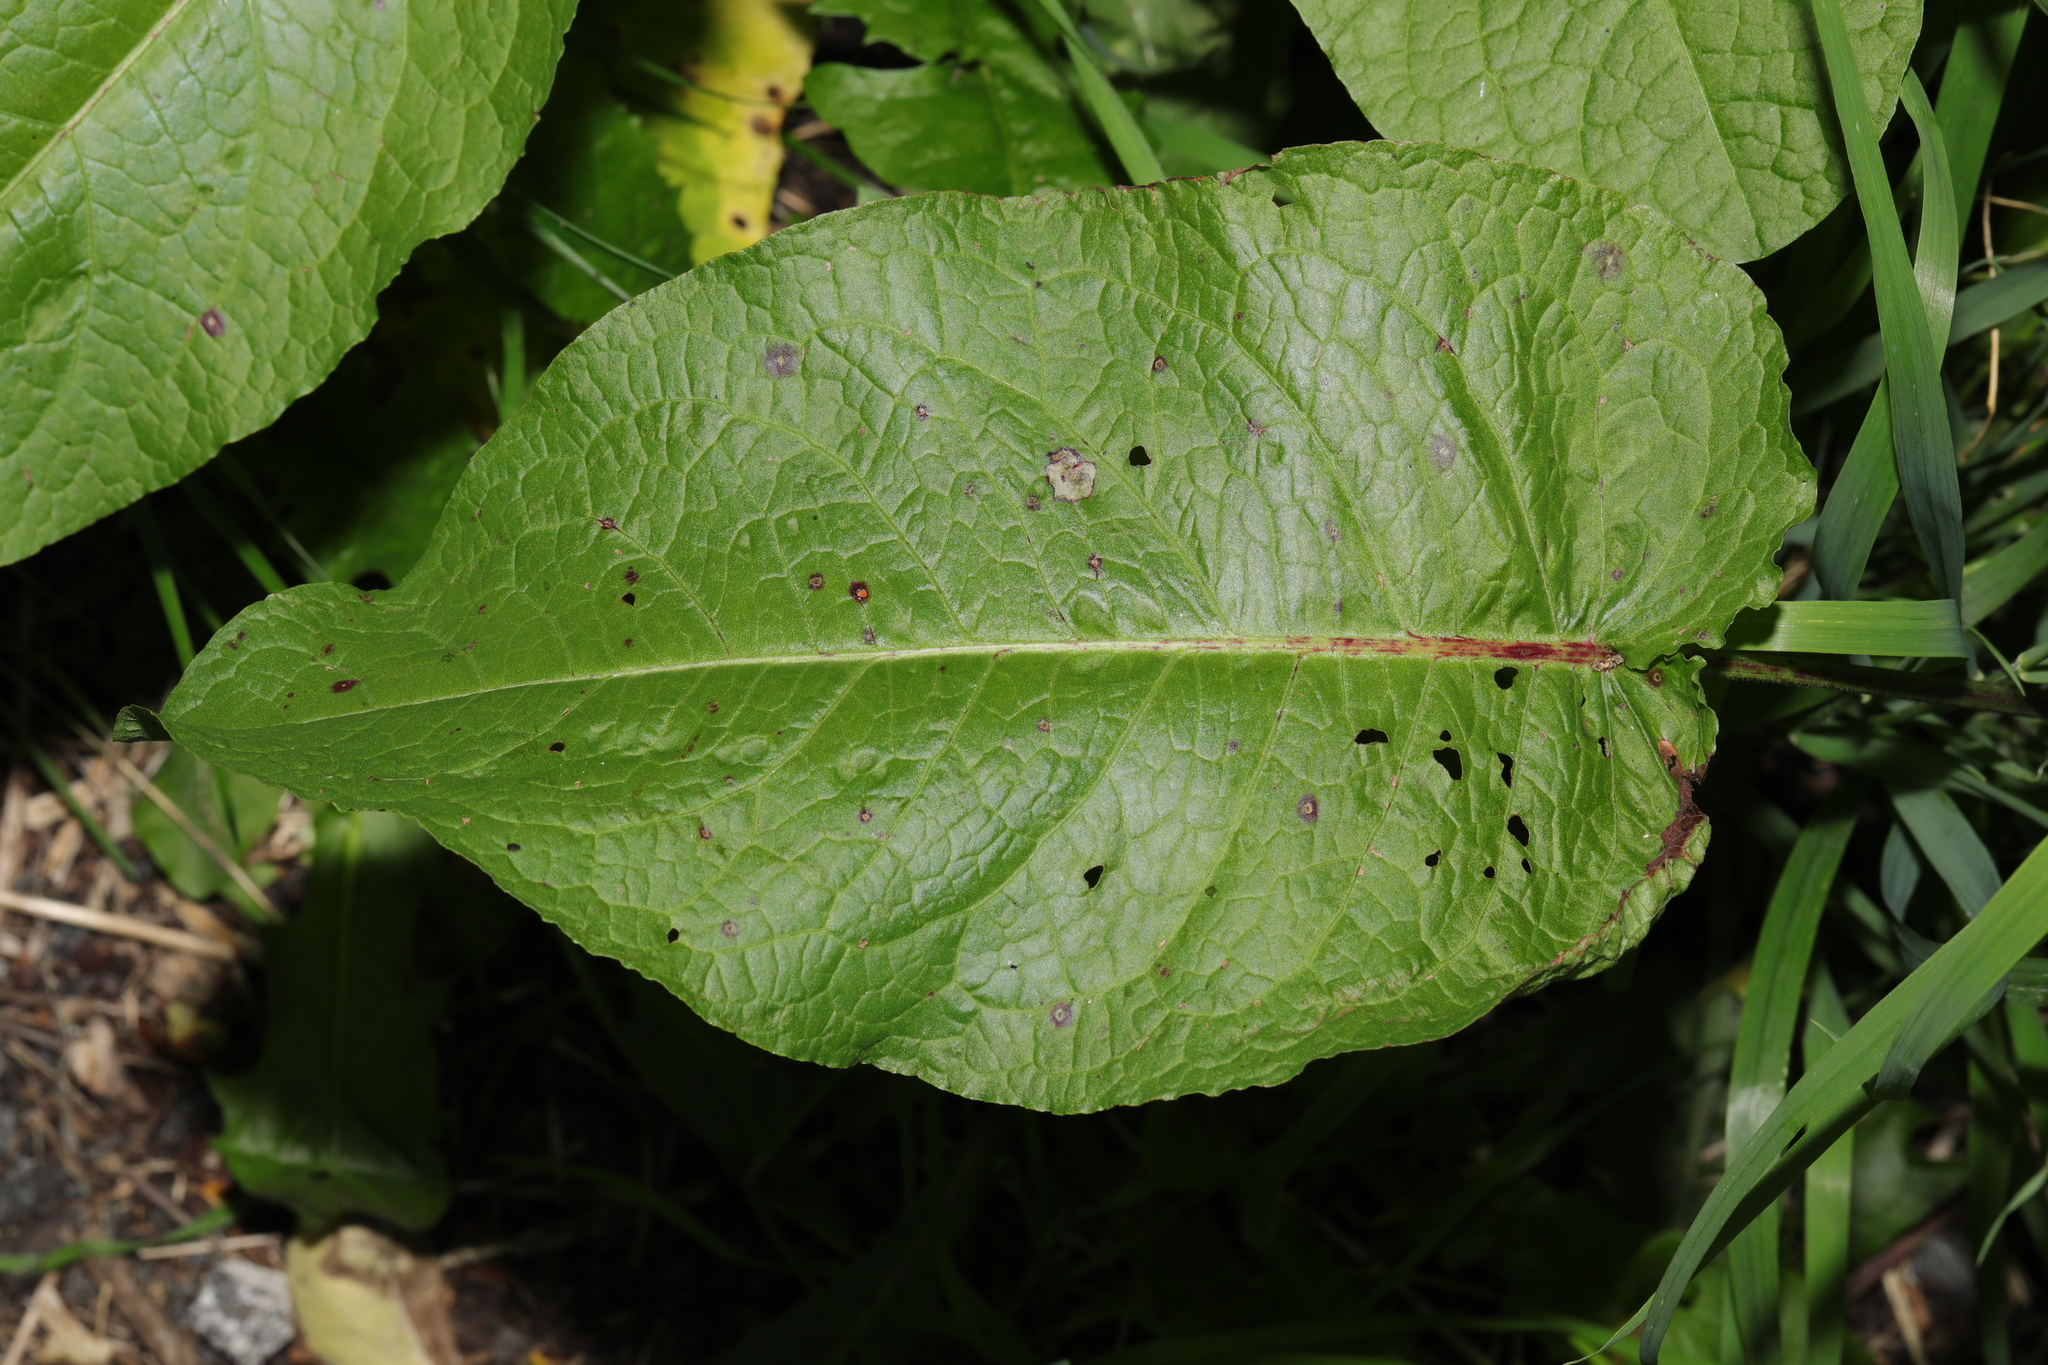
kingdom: Plantae
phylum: Tracheophyta
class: Magnoliopsida
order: Caryophyllales
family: Polygonaceae
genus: Rumex
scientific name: Rumex obtusifolius
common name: Bitter dock
